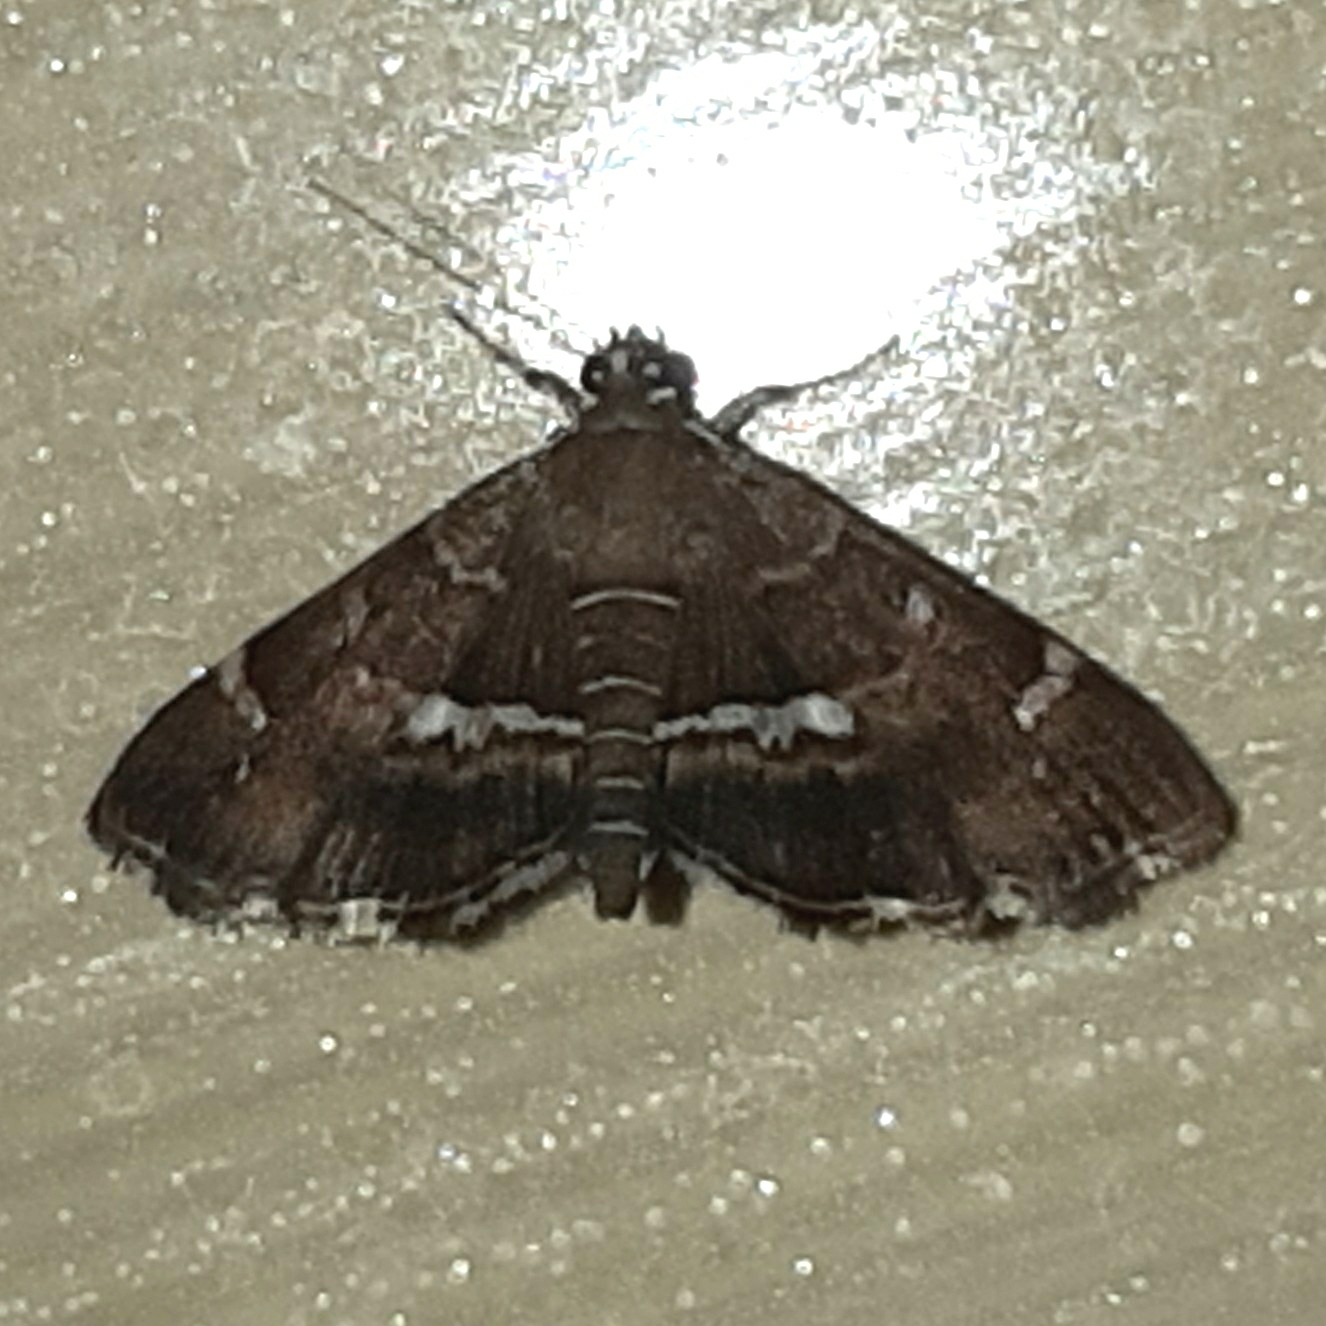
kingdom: Animalia
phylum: Arthropoda
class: Insecta
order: Lepidoptera
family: Crambidae
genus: Hymenia
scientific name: Hymenia perspectalis
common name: Spotted beet webworm
